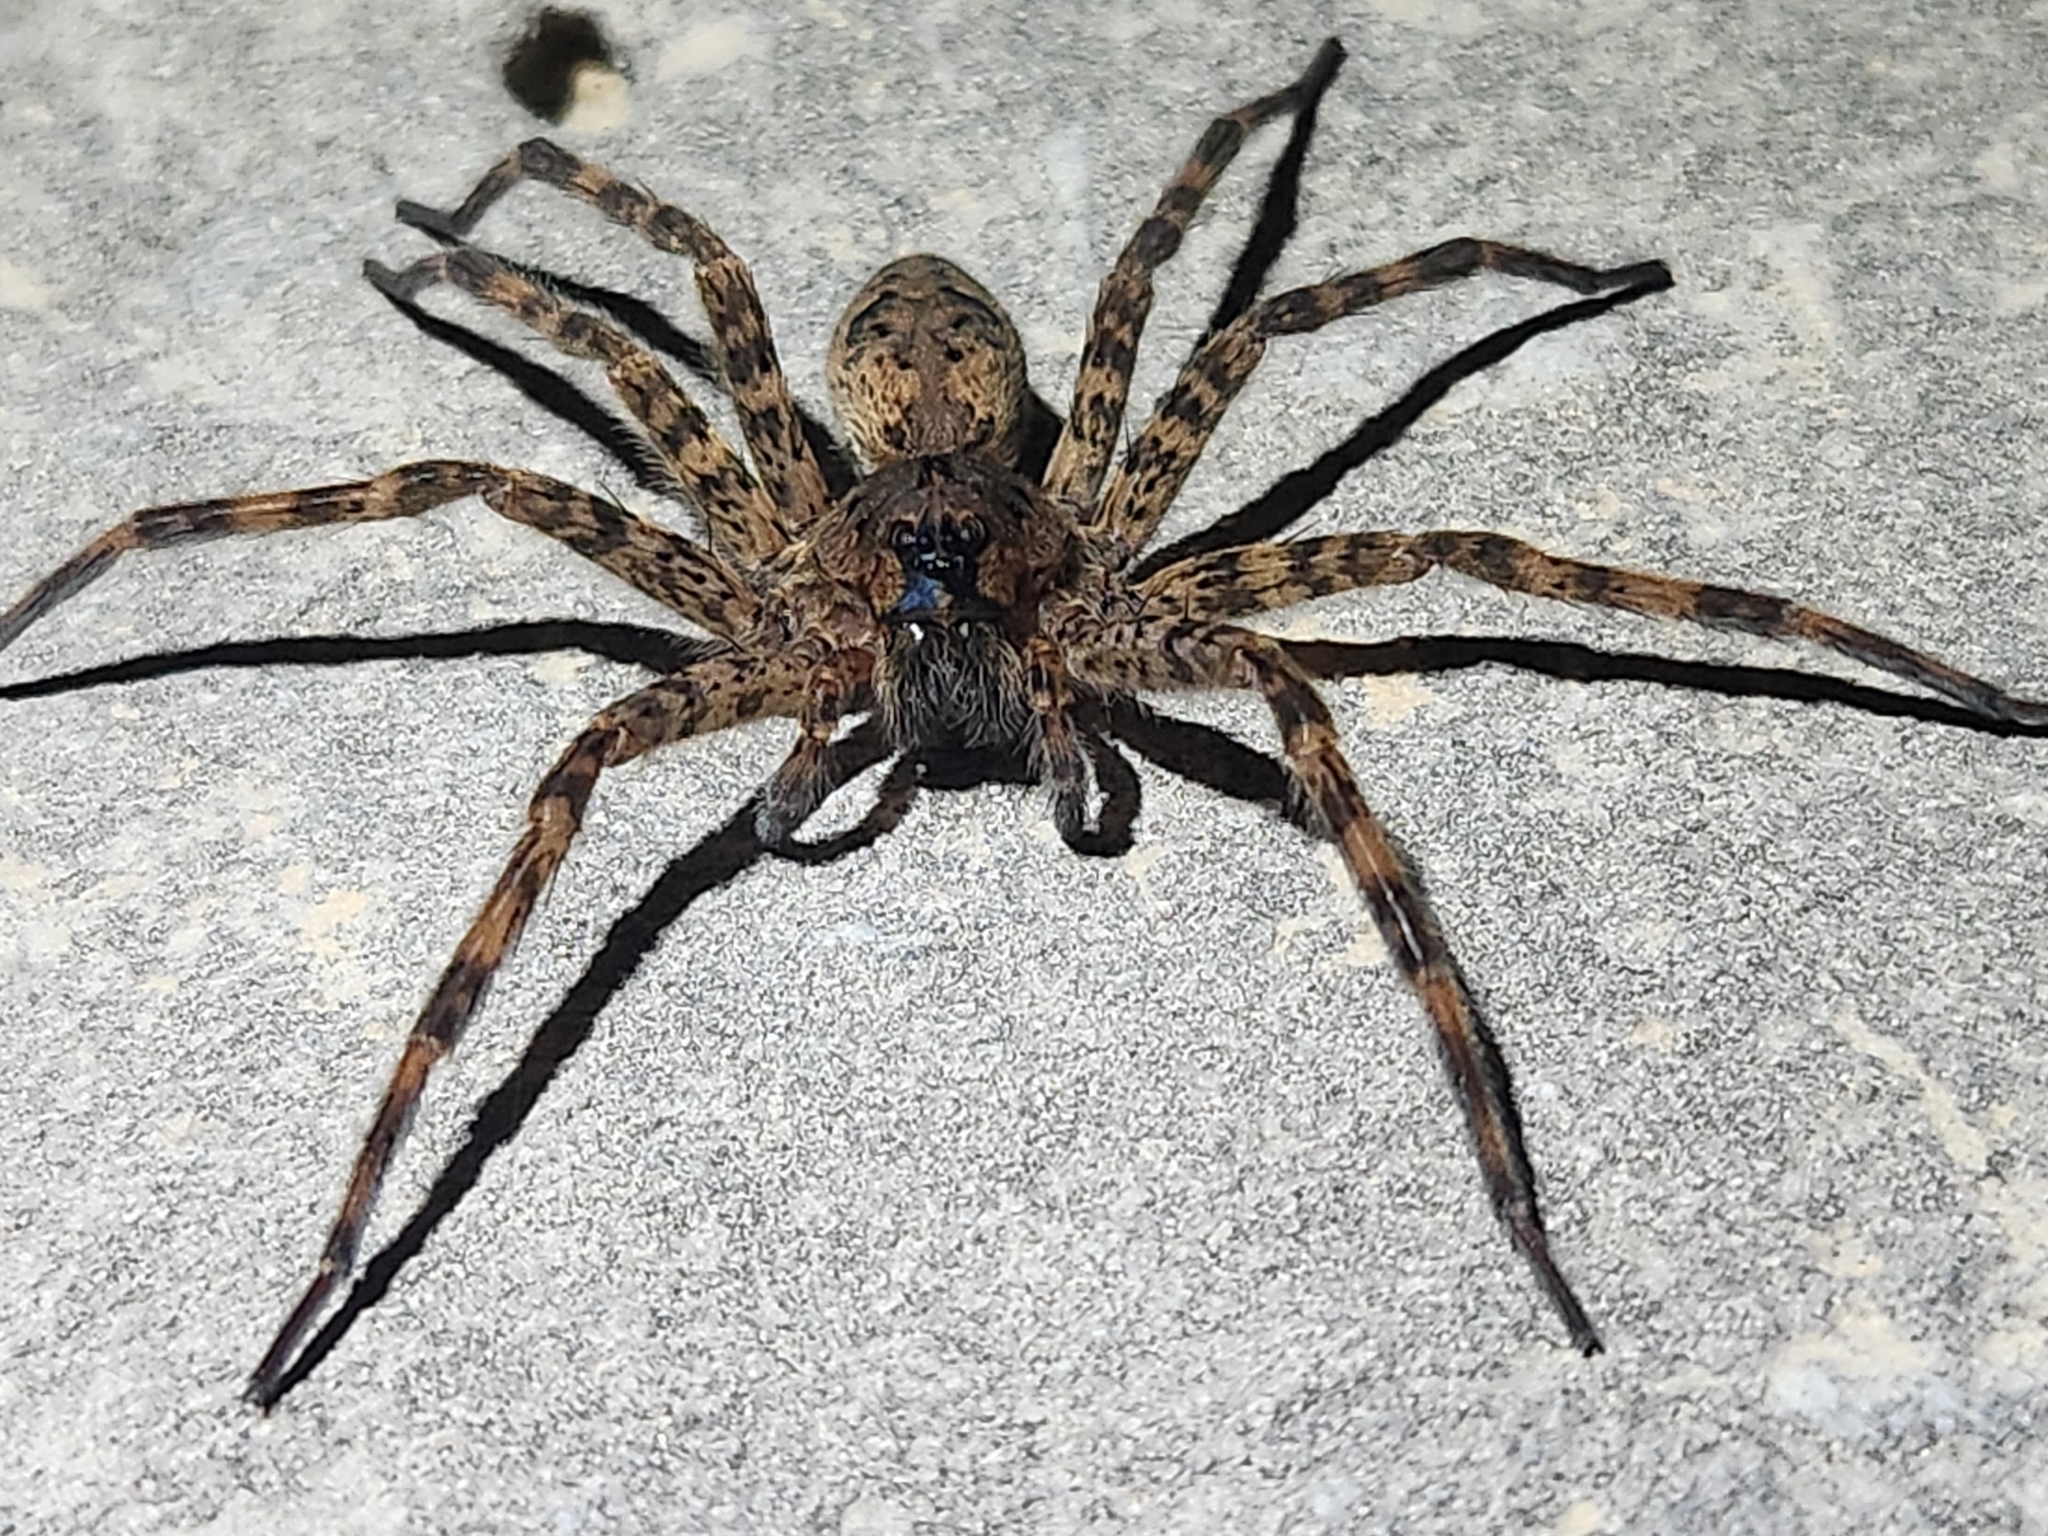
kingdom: Animalia
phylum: Arthropoda
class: Arachnida
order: Araneae
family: Pisauridae
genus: Dolomedes
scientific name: Dolomedes tenebrosus
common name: Dark fishing spider
